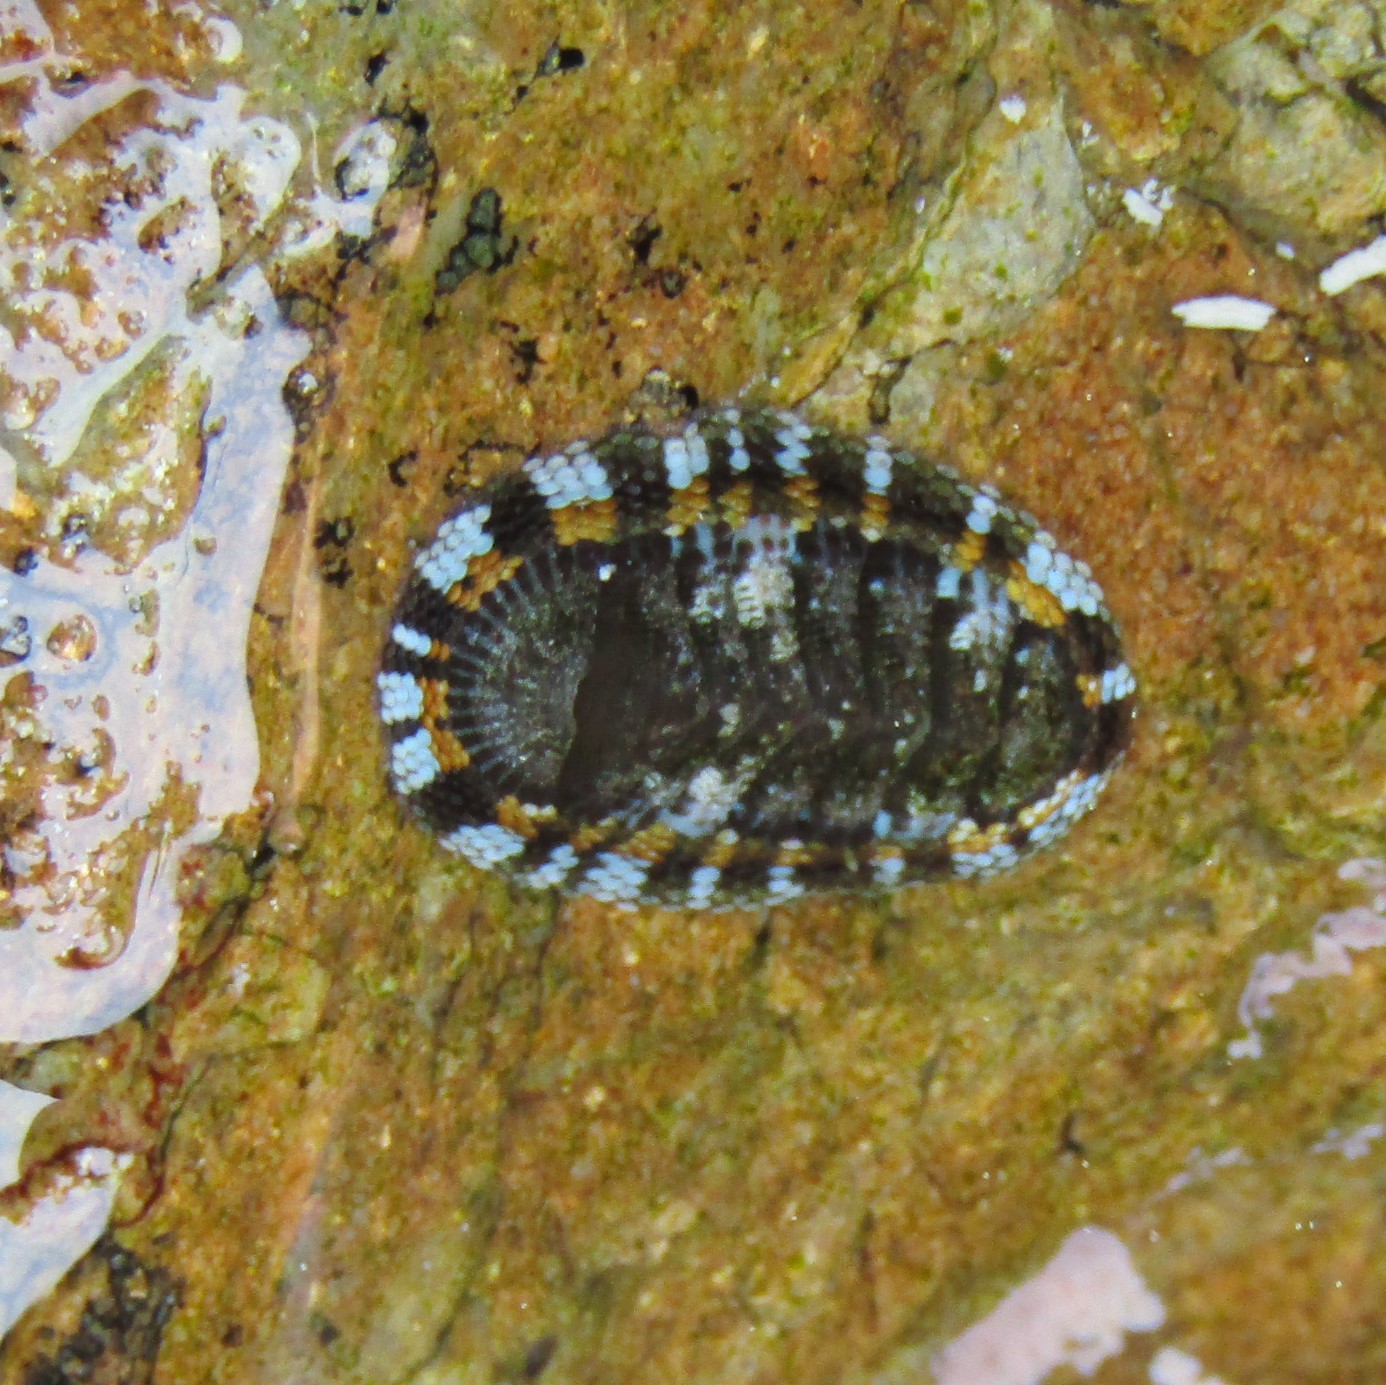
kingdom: Animalia
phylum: Mollusca
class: Polyplacophora
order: Chitonida
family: Chitonidae
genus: Sypharochiton
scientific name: Sypharochiton sinclairi
